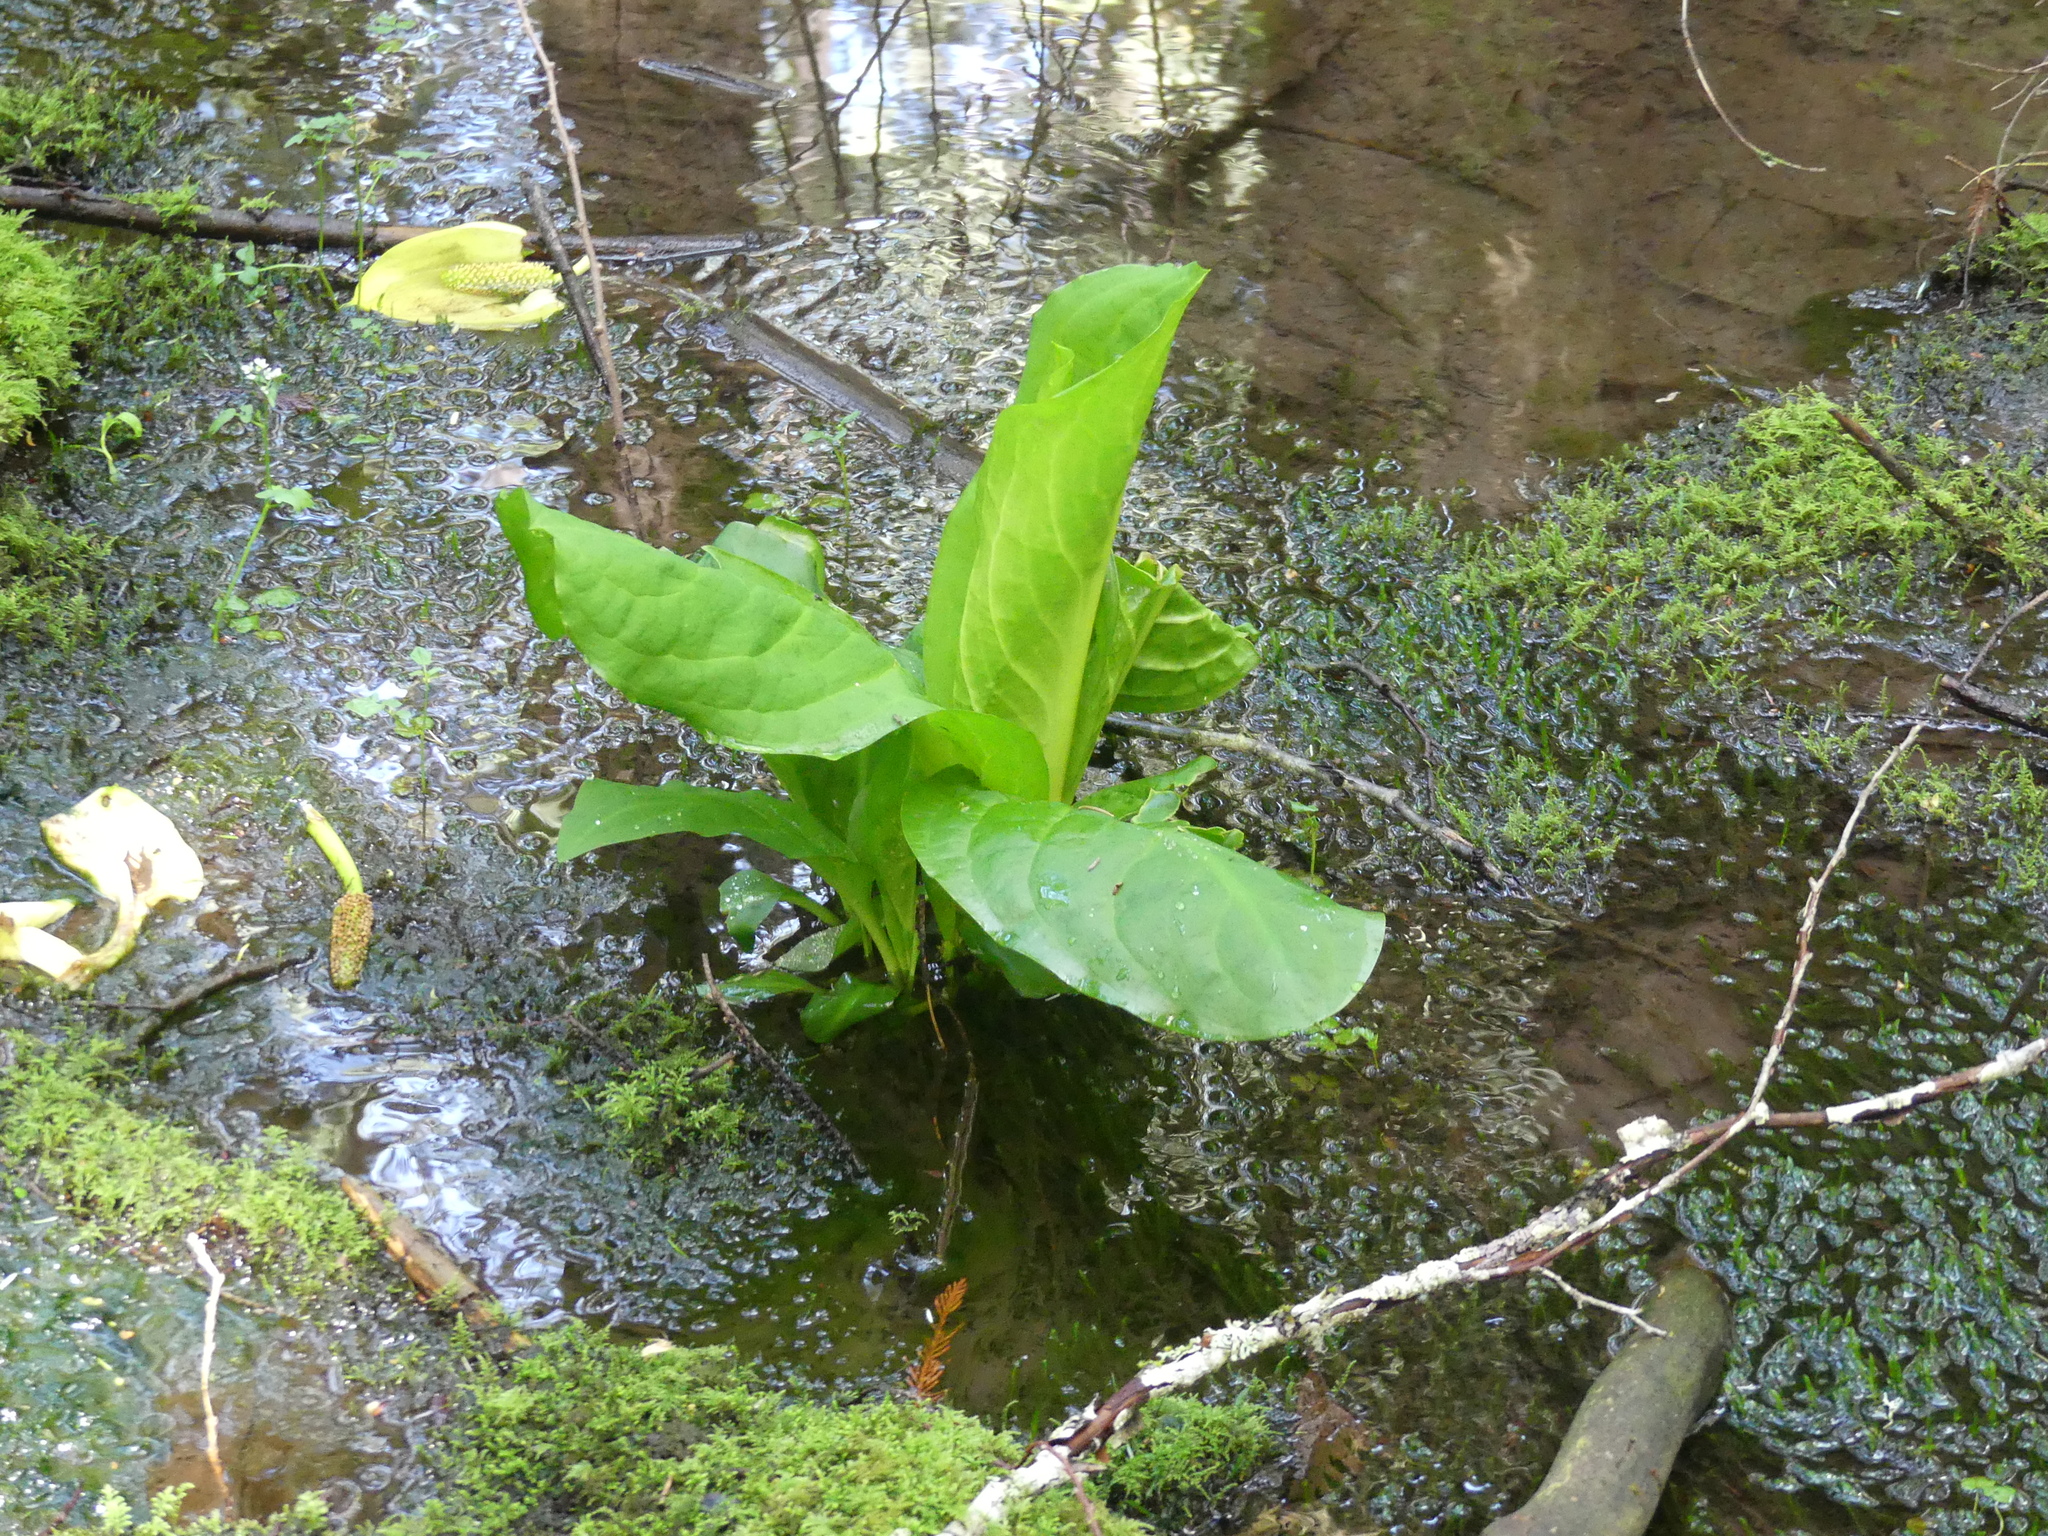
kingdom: Plantae
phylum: Tracheophyta
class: Liliopsida
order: Alismatales
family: Araceae
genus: Lysichiton
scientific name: Lysichiton americanus
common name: American skunk cabbage
